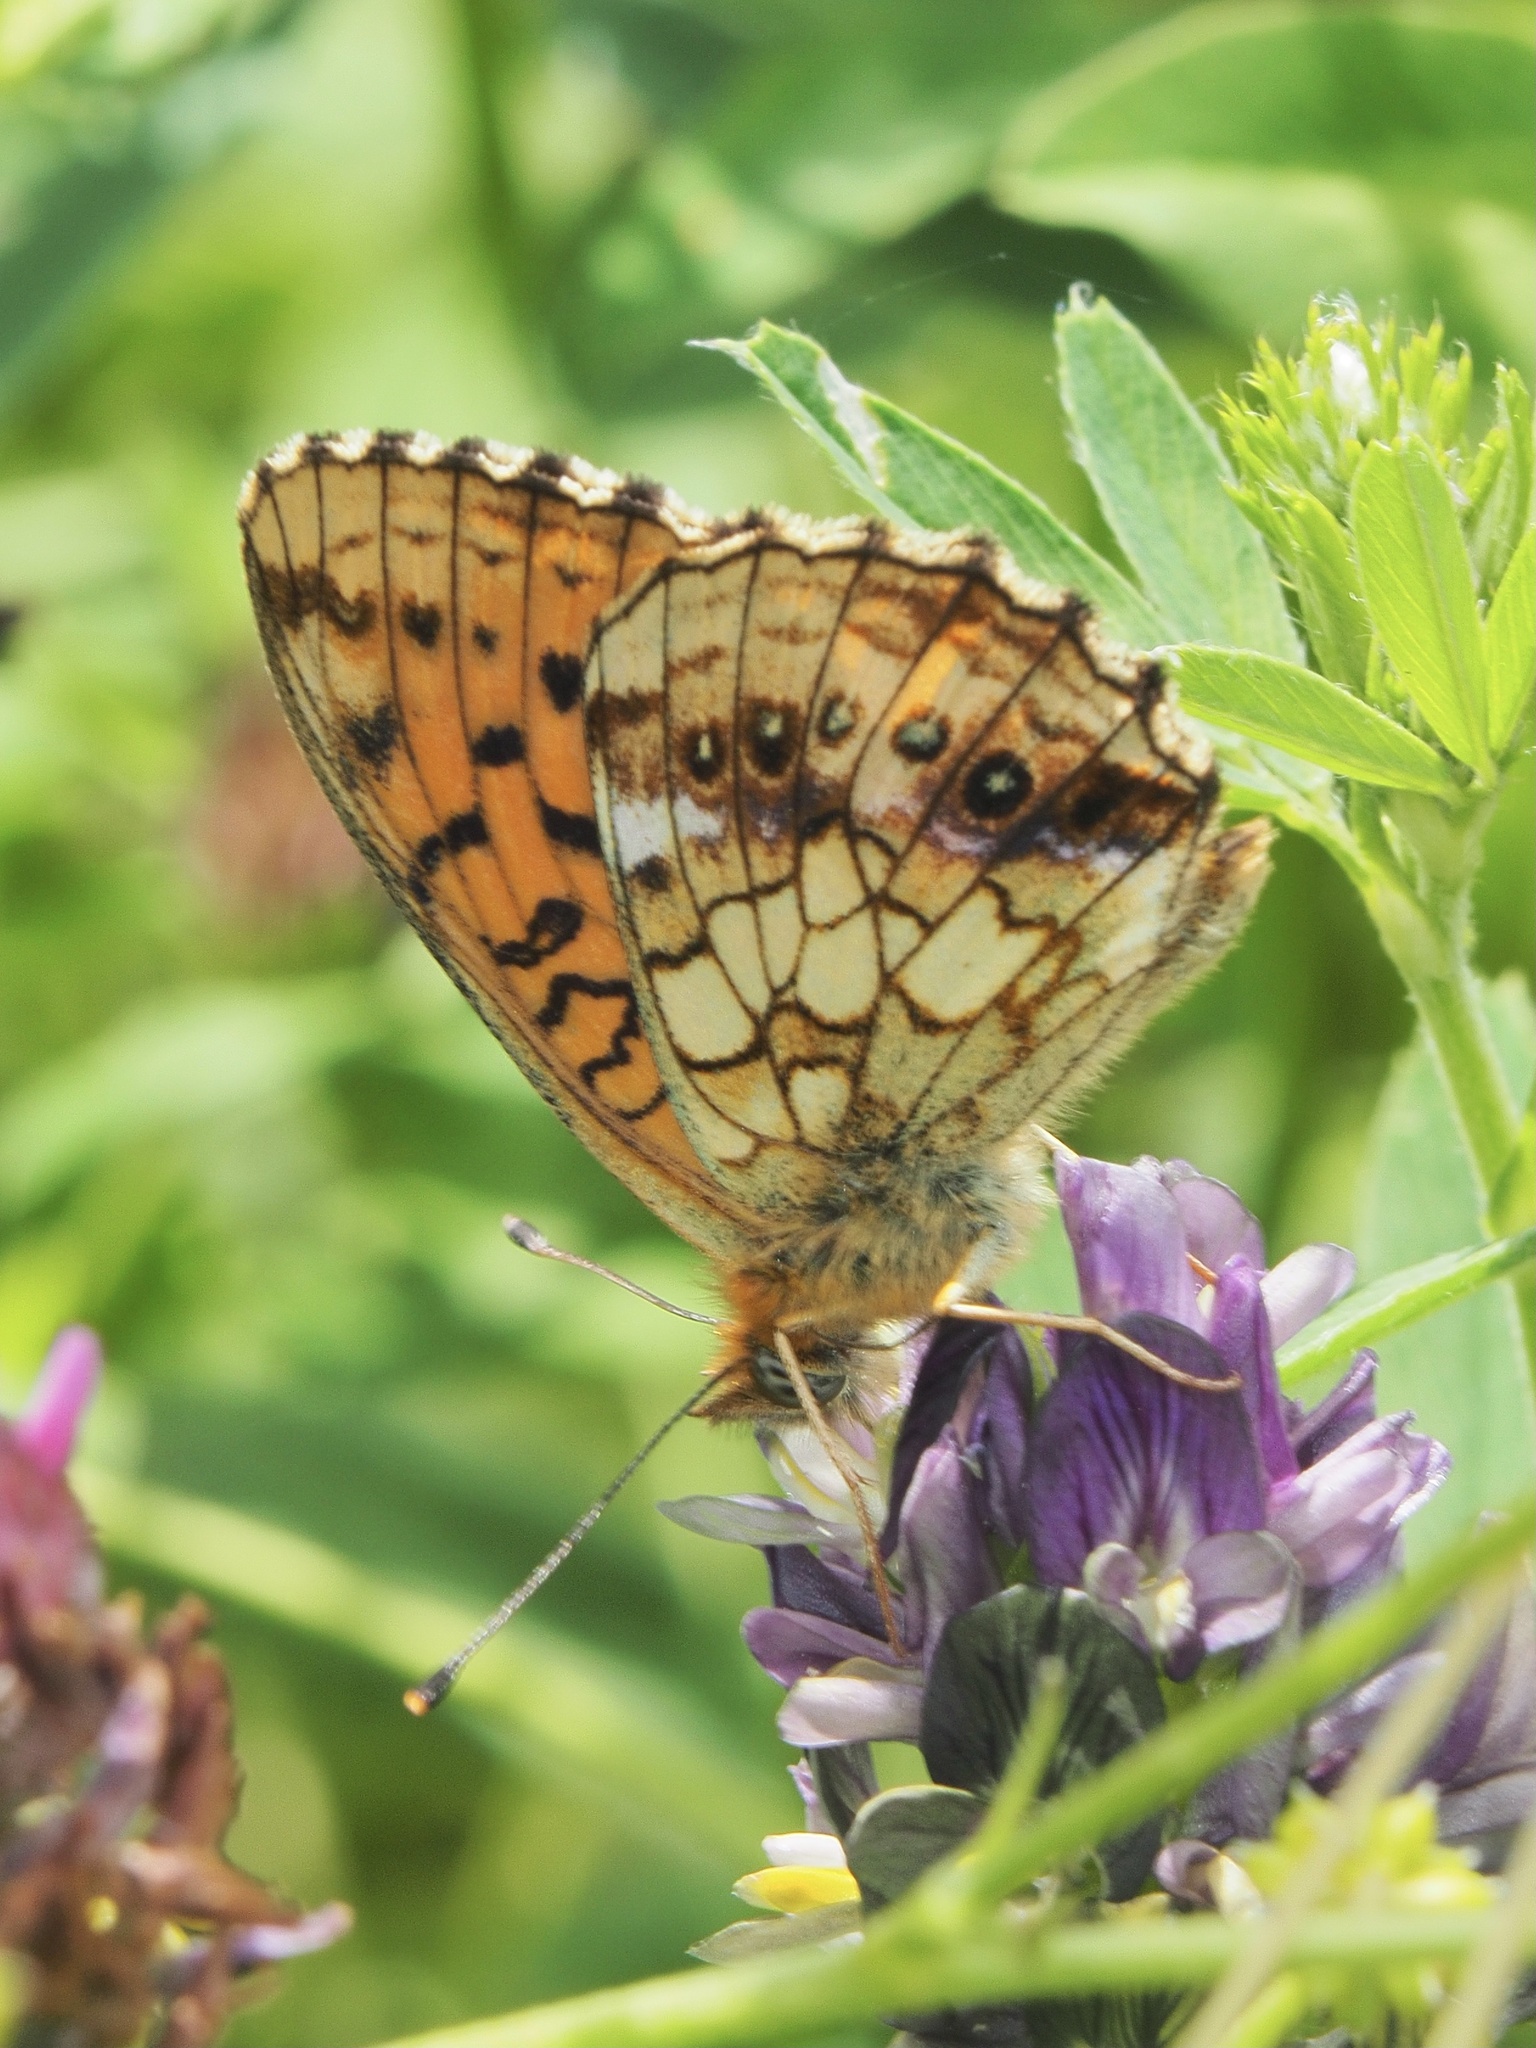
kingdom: Animalia
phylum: Arthropoda
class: Insecta
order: Lepidoptera
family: Nymphalidae
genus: Brenthis
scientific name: Brenthis ino
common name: Lesser marbled fritillary
